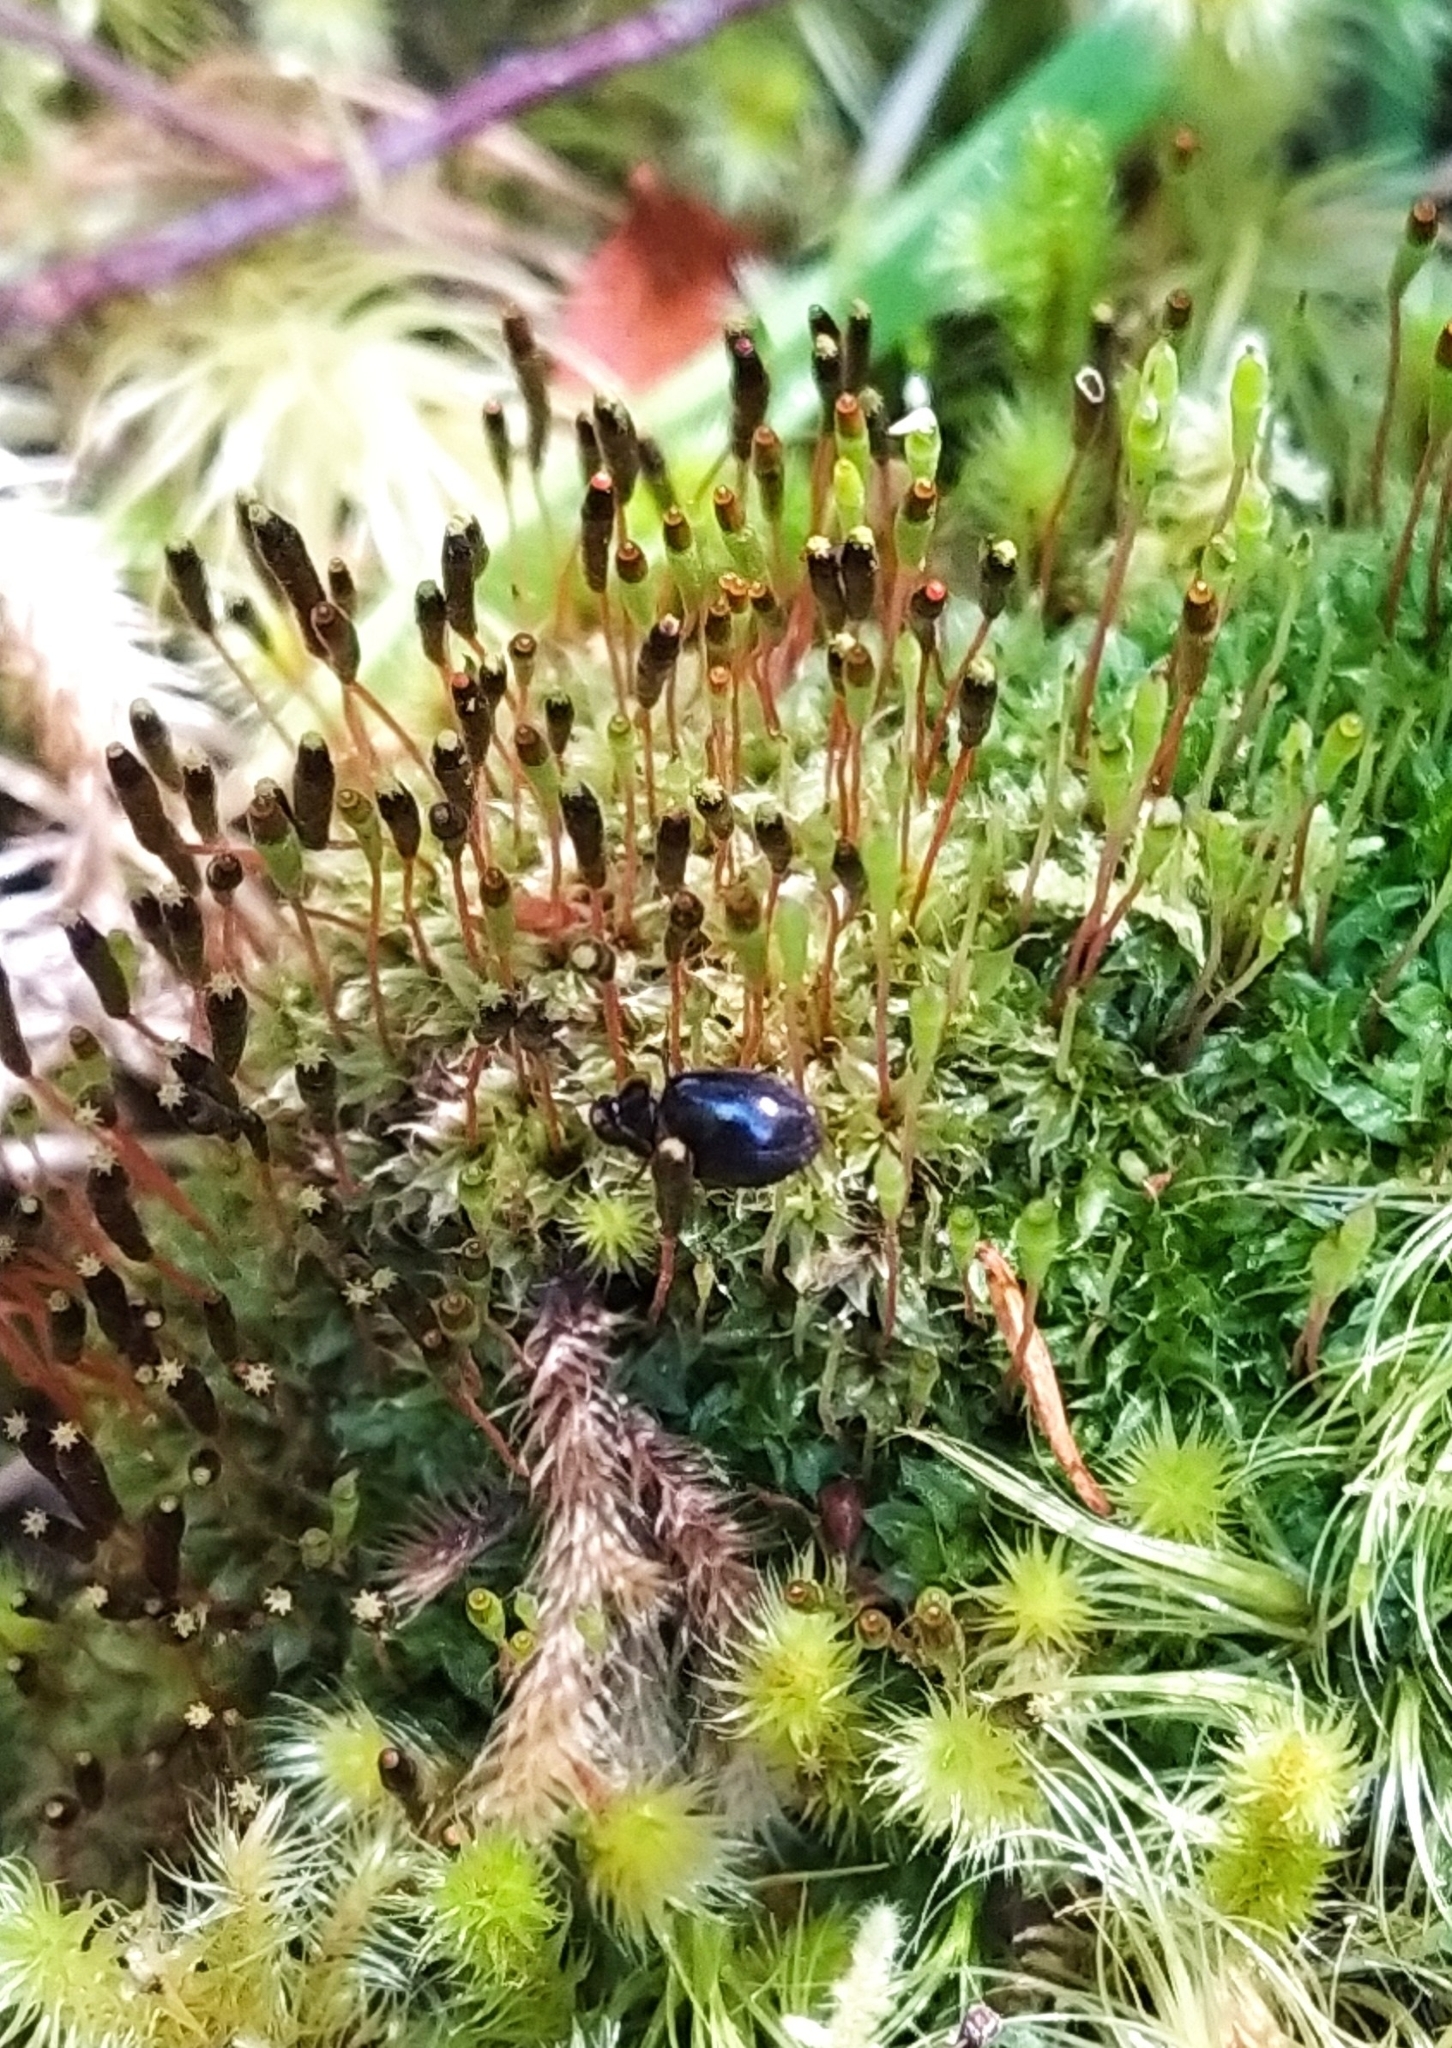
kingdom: Plantae
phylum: Bryophyta
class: Bryopsida
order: Splachnales
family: Splachnaceae
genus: Tayloria
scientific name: Tayloria octoblephara
